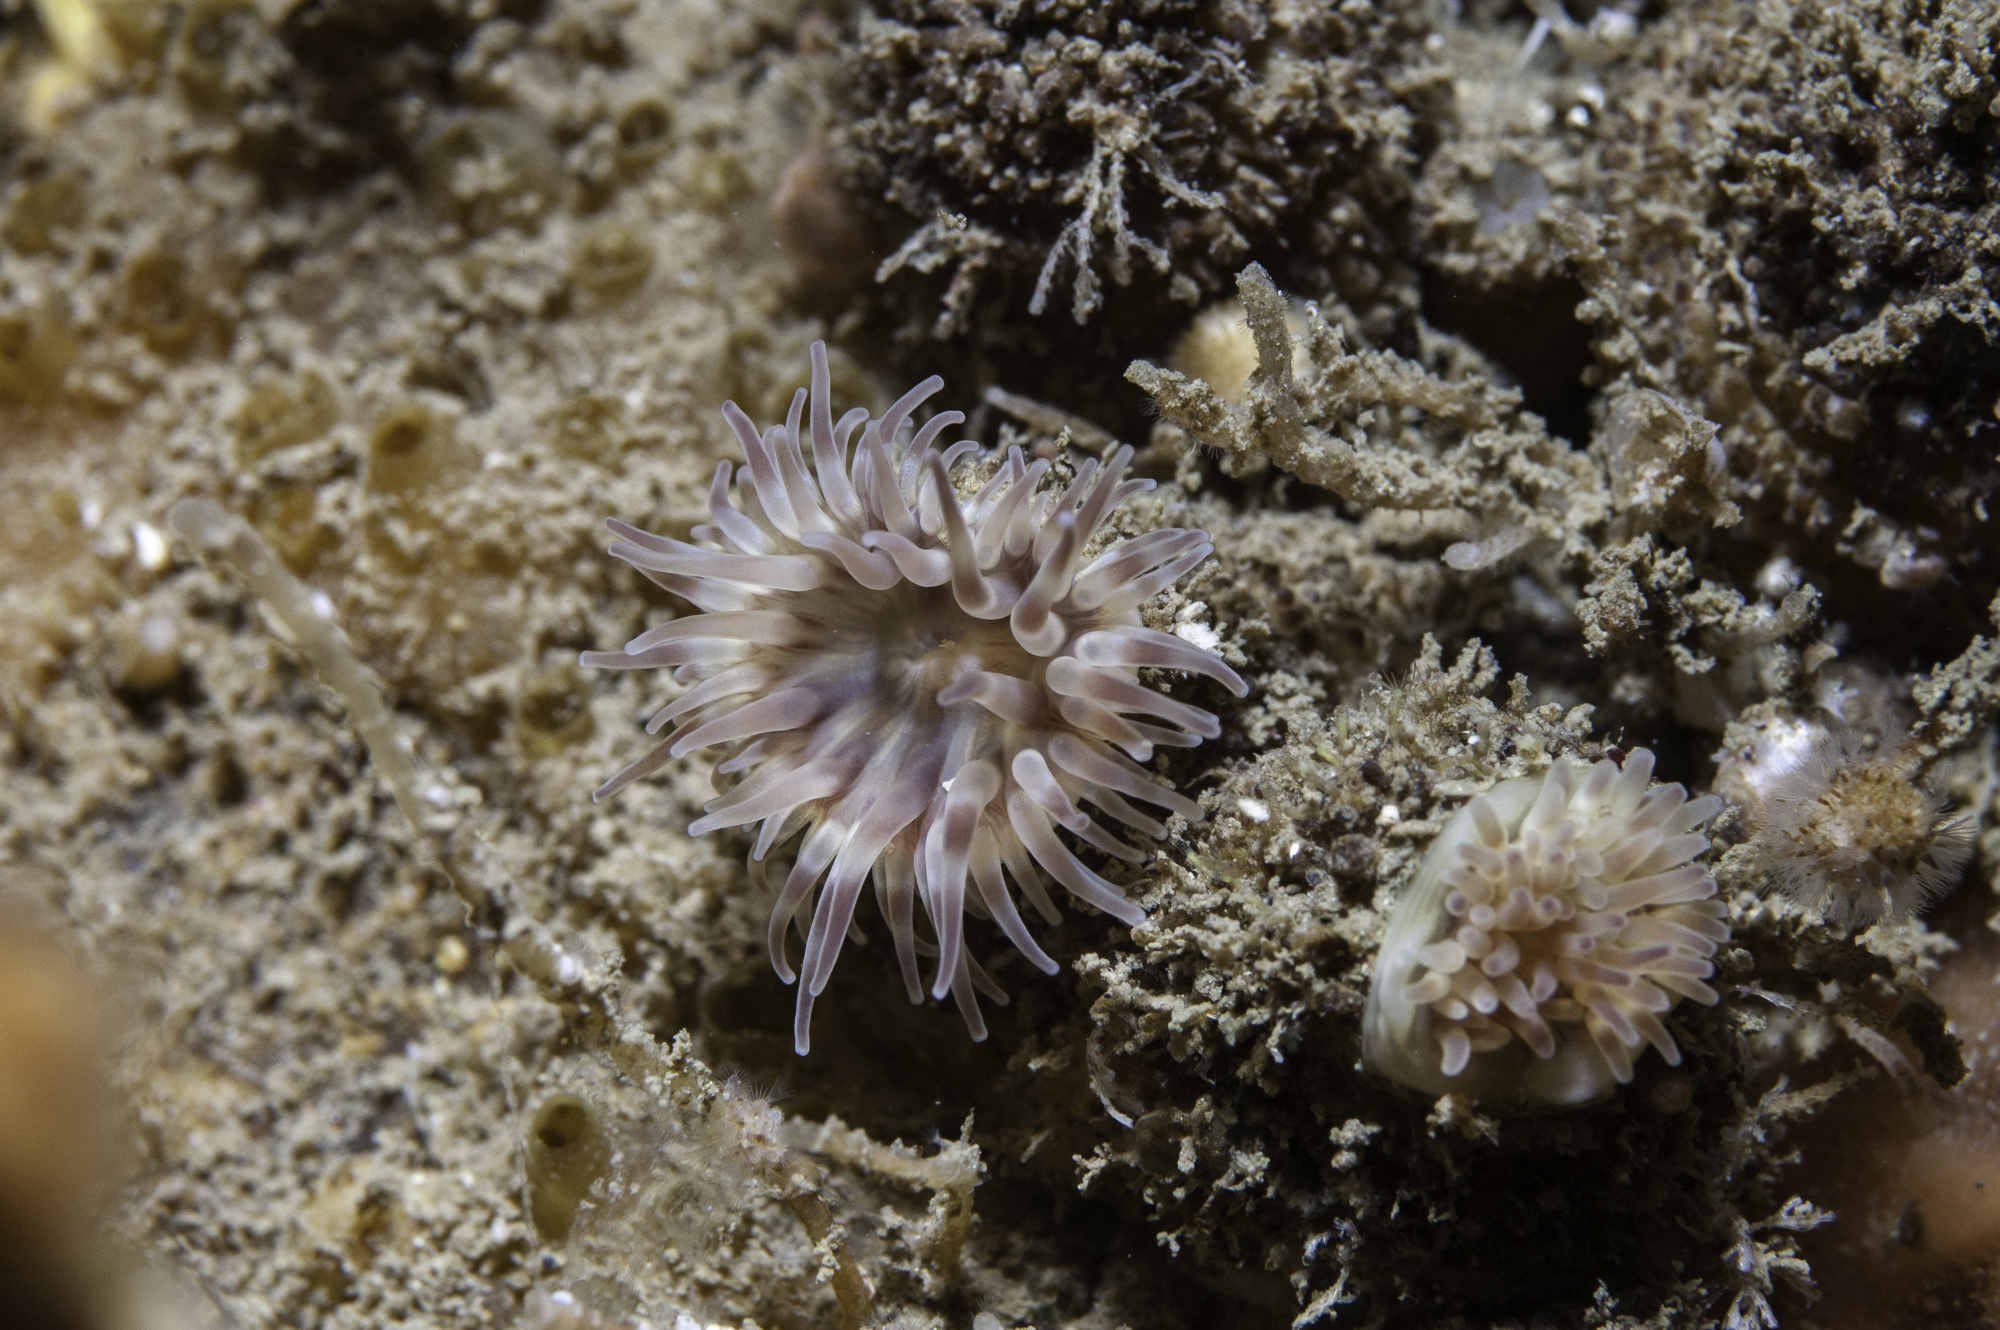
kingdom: Animalia
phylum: Cnidaria
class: Anthozoa
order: Actiniaria
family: Phelliidae
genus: Phellia
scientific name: Phellia gausapata
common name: Olive green wart anemone
